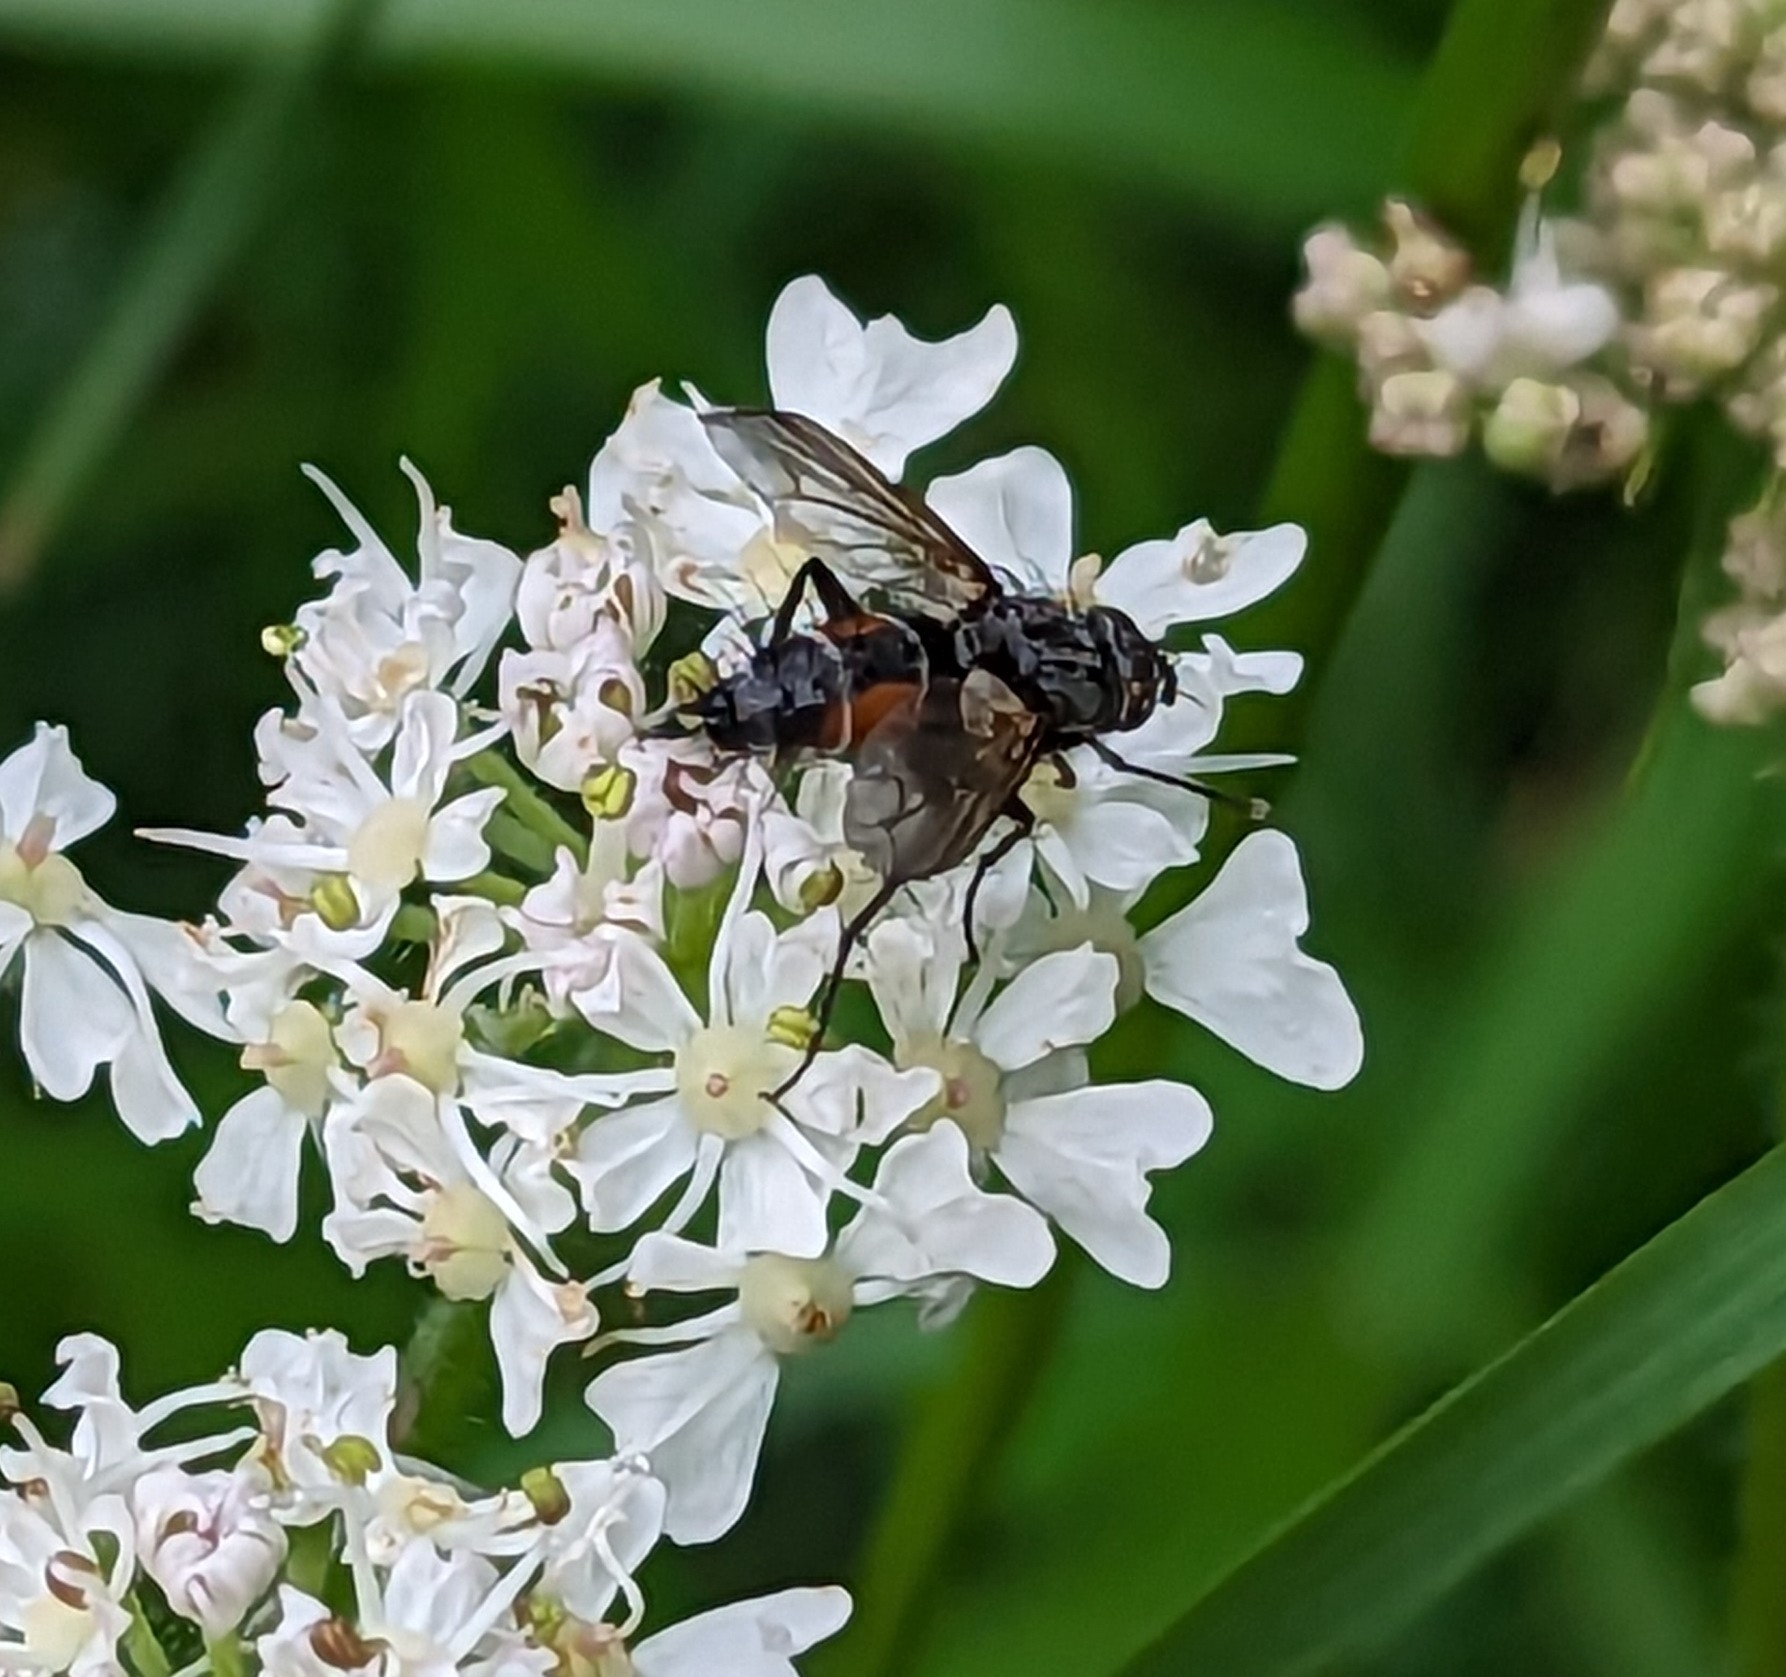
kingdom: Animalia
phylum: Arthropoda
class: Insecta
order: Diptera
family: Tachinidae
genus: Eriothrix
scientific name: Eriothrix rufomaculatus
